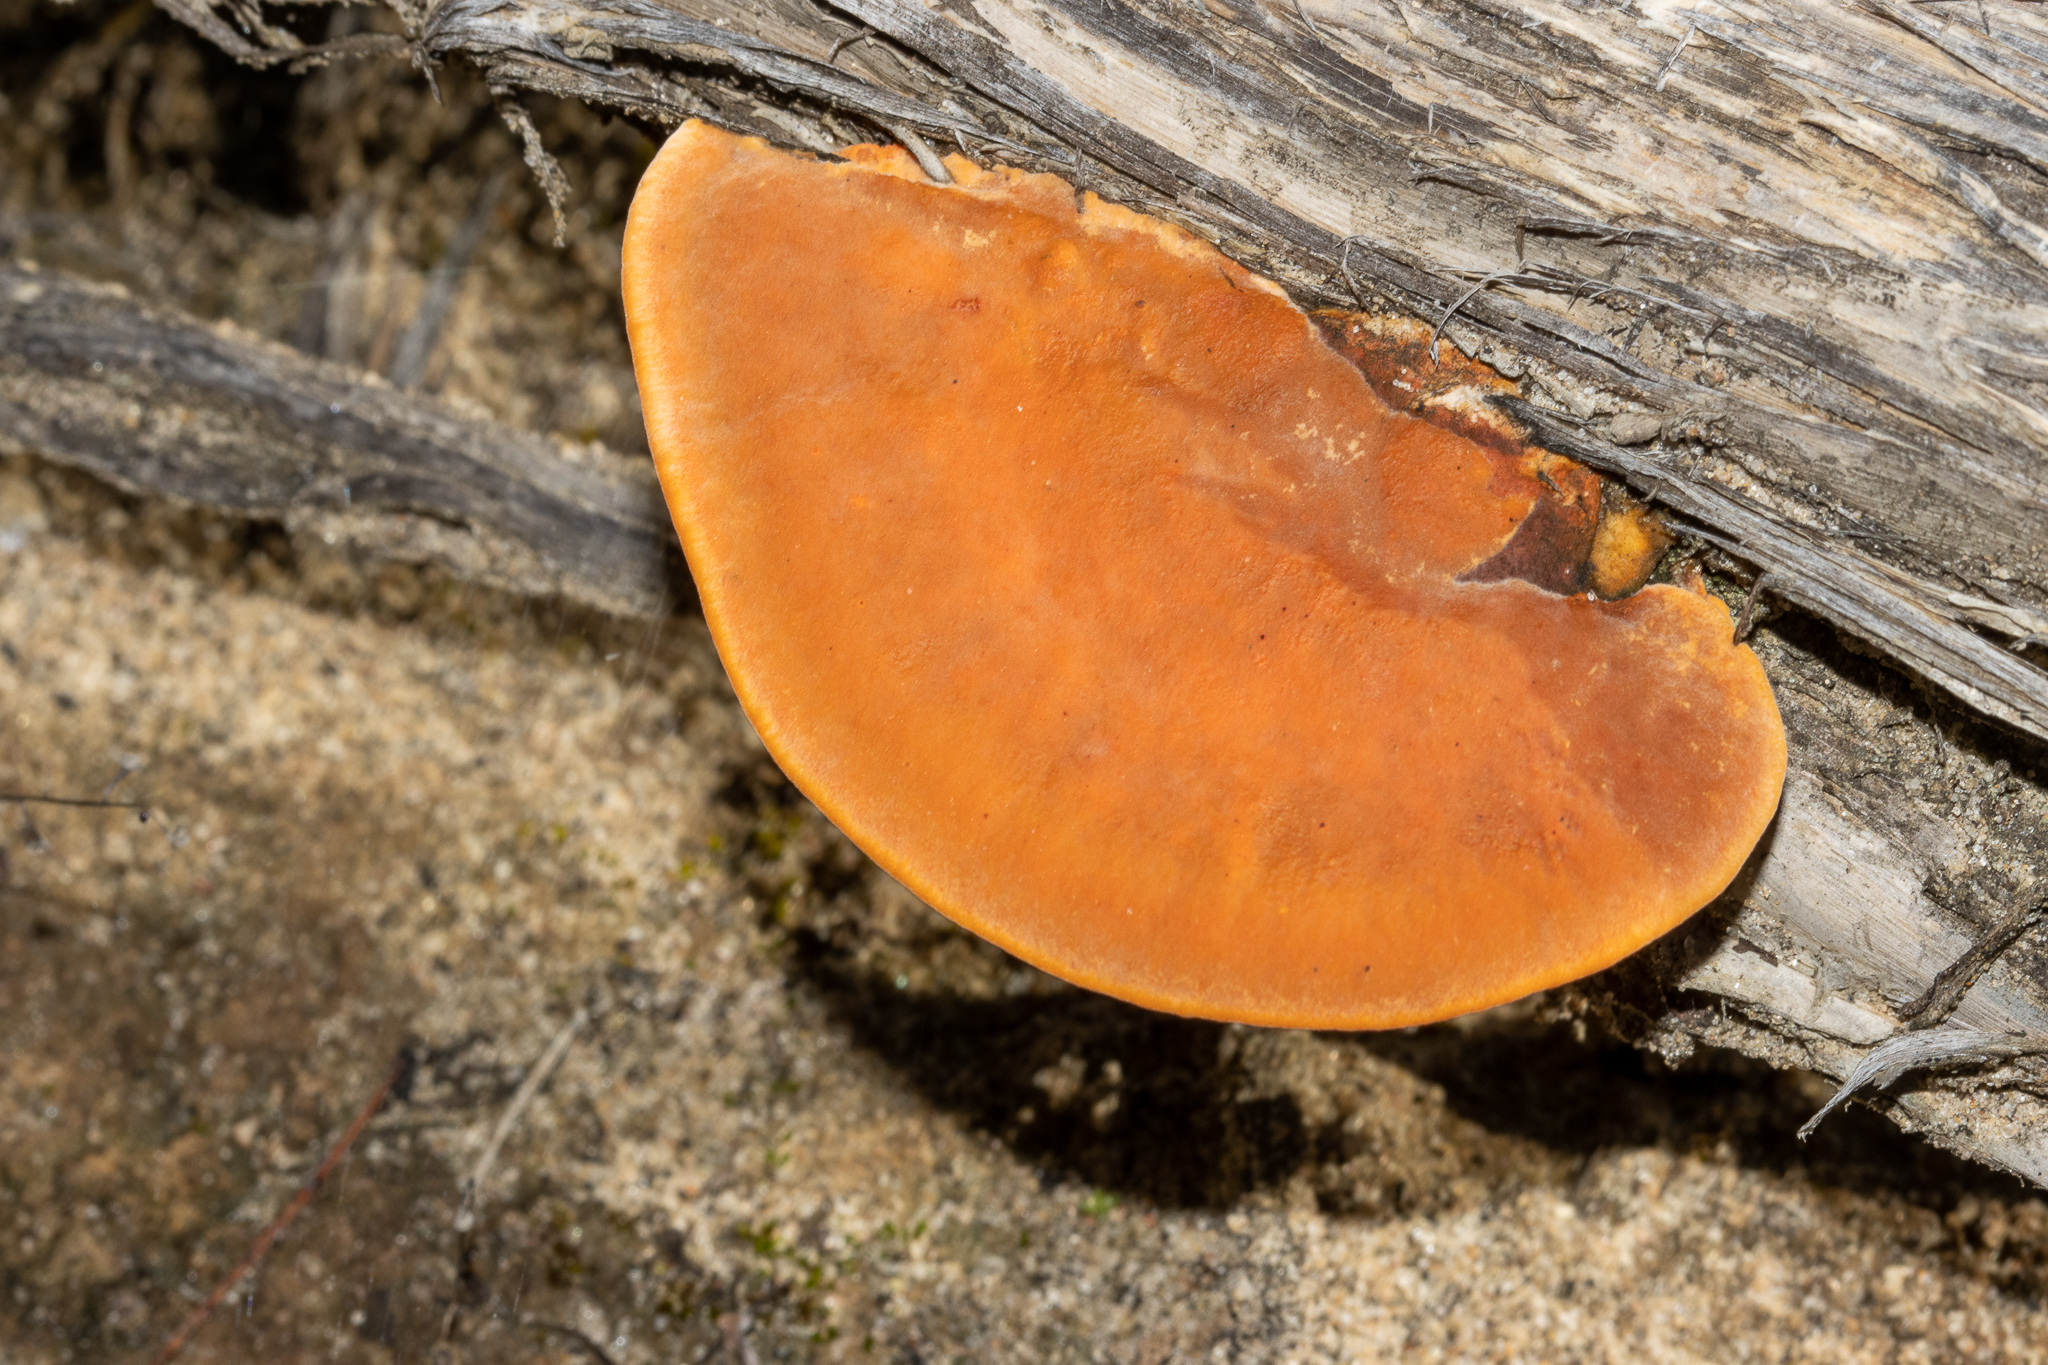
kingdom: Fungi
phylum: Basidiomycota
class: Agaricomycetes
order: Polyporales
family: Polyporaceae
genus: Trametes
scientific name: Trametes coccinea
